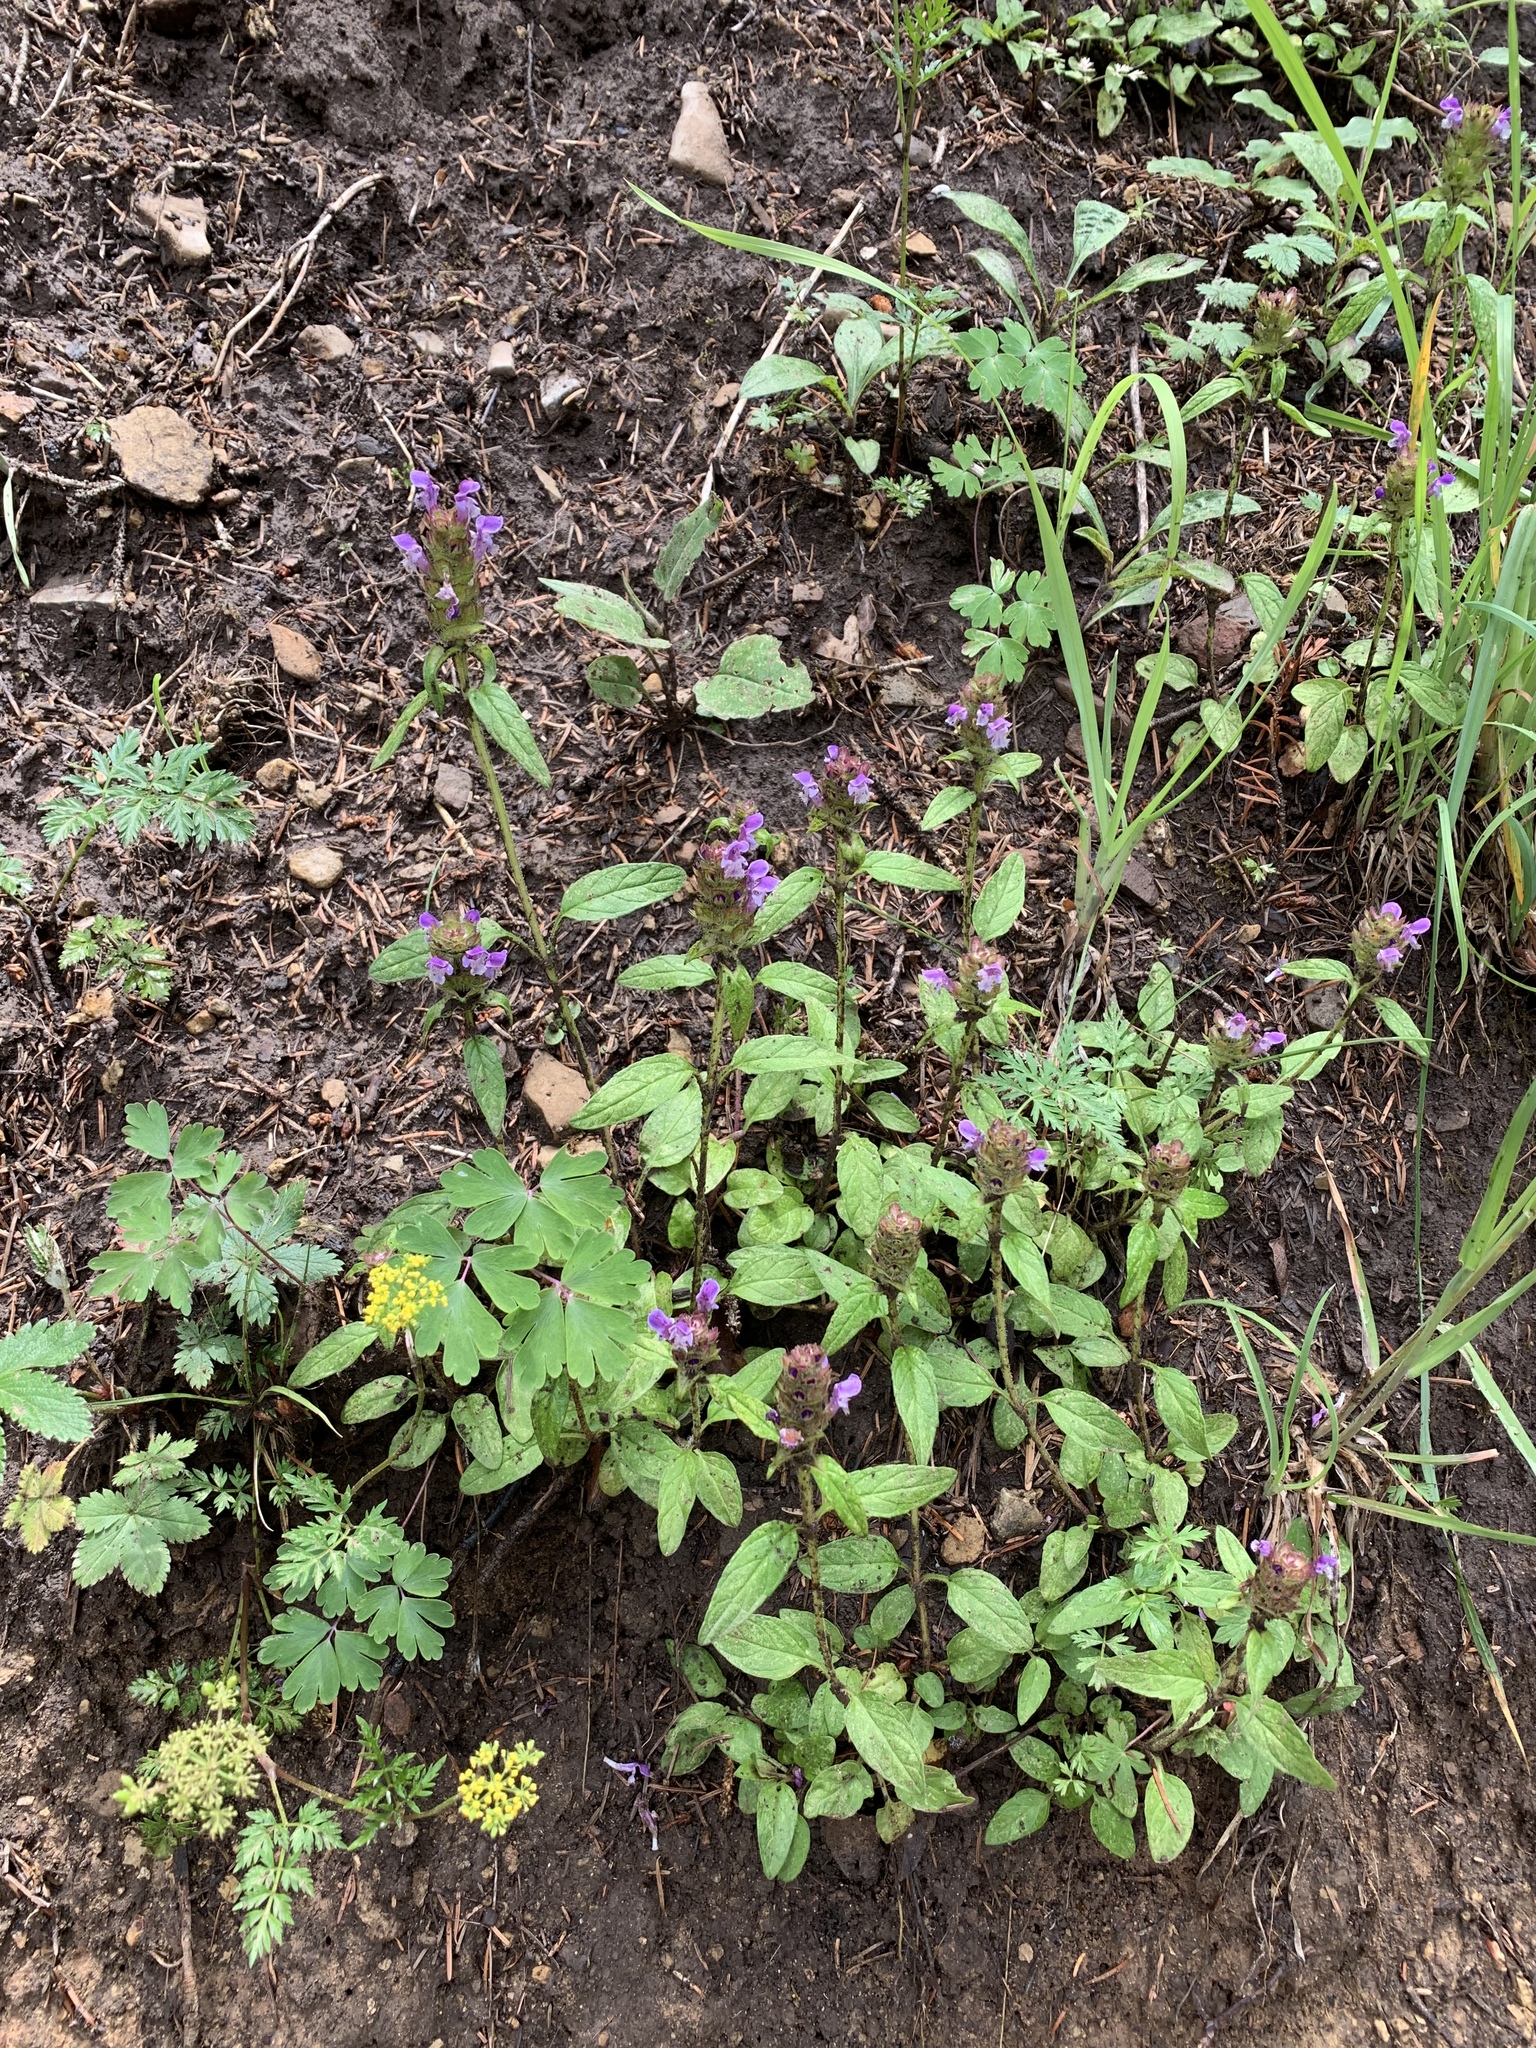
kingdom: Plantae
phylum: Tracheophyta
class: Magnoliopsida
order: Lamiales
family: Lamiaceae
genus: Prunella
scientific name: Prunella vulgaris
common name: Heal-all
